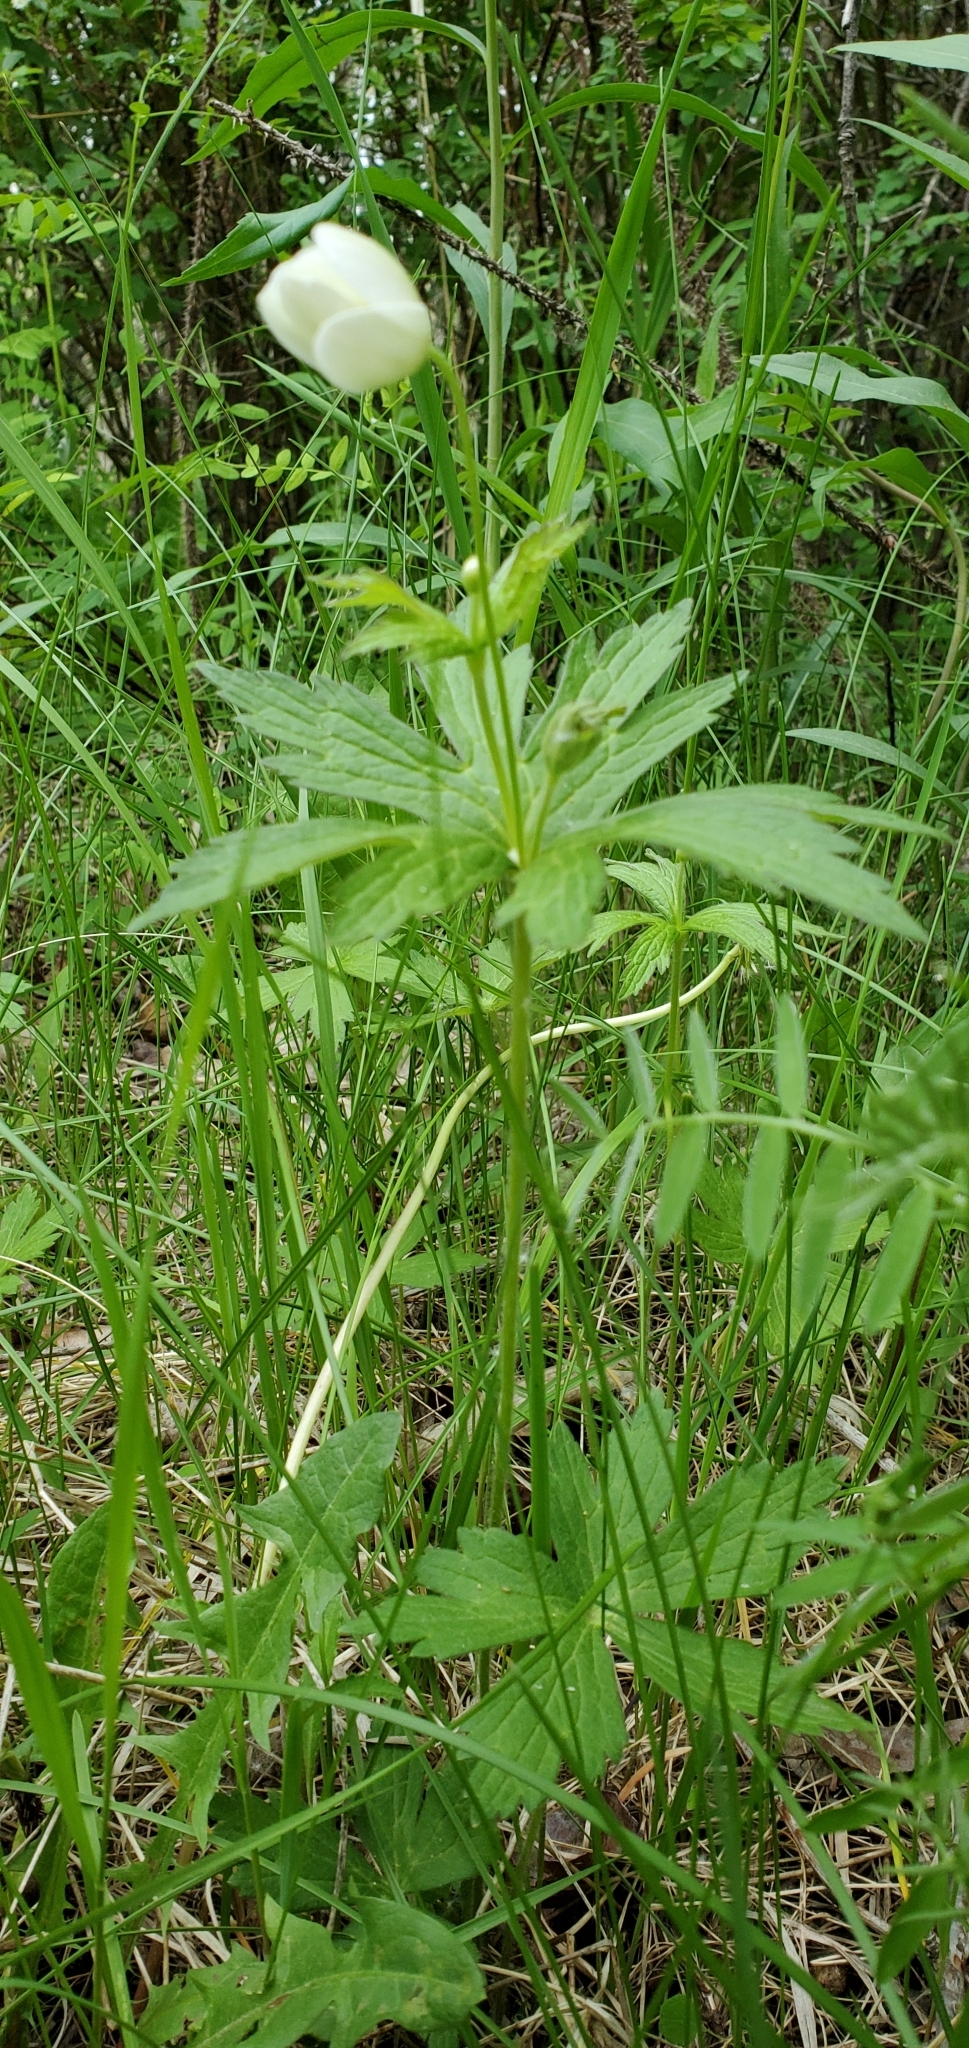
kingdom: Plantae
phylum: Tracheophyta
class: Magnoliopsida
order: Ranunculales
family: Ranunculaceae
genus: Anemonastrum
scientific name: Anemonastrum canadense
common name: Canada anemone
